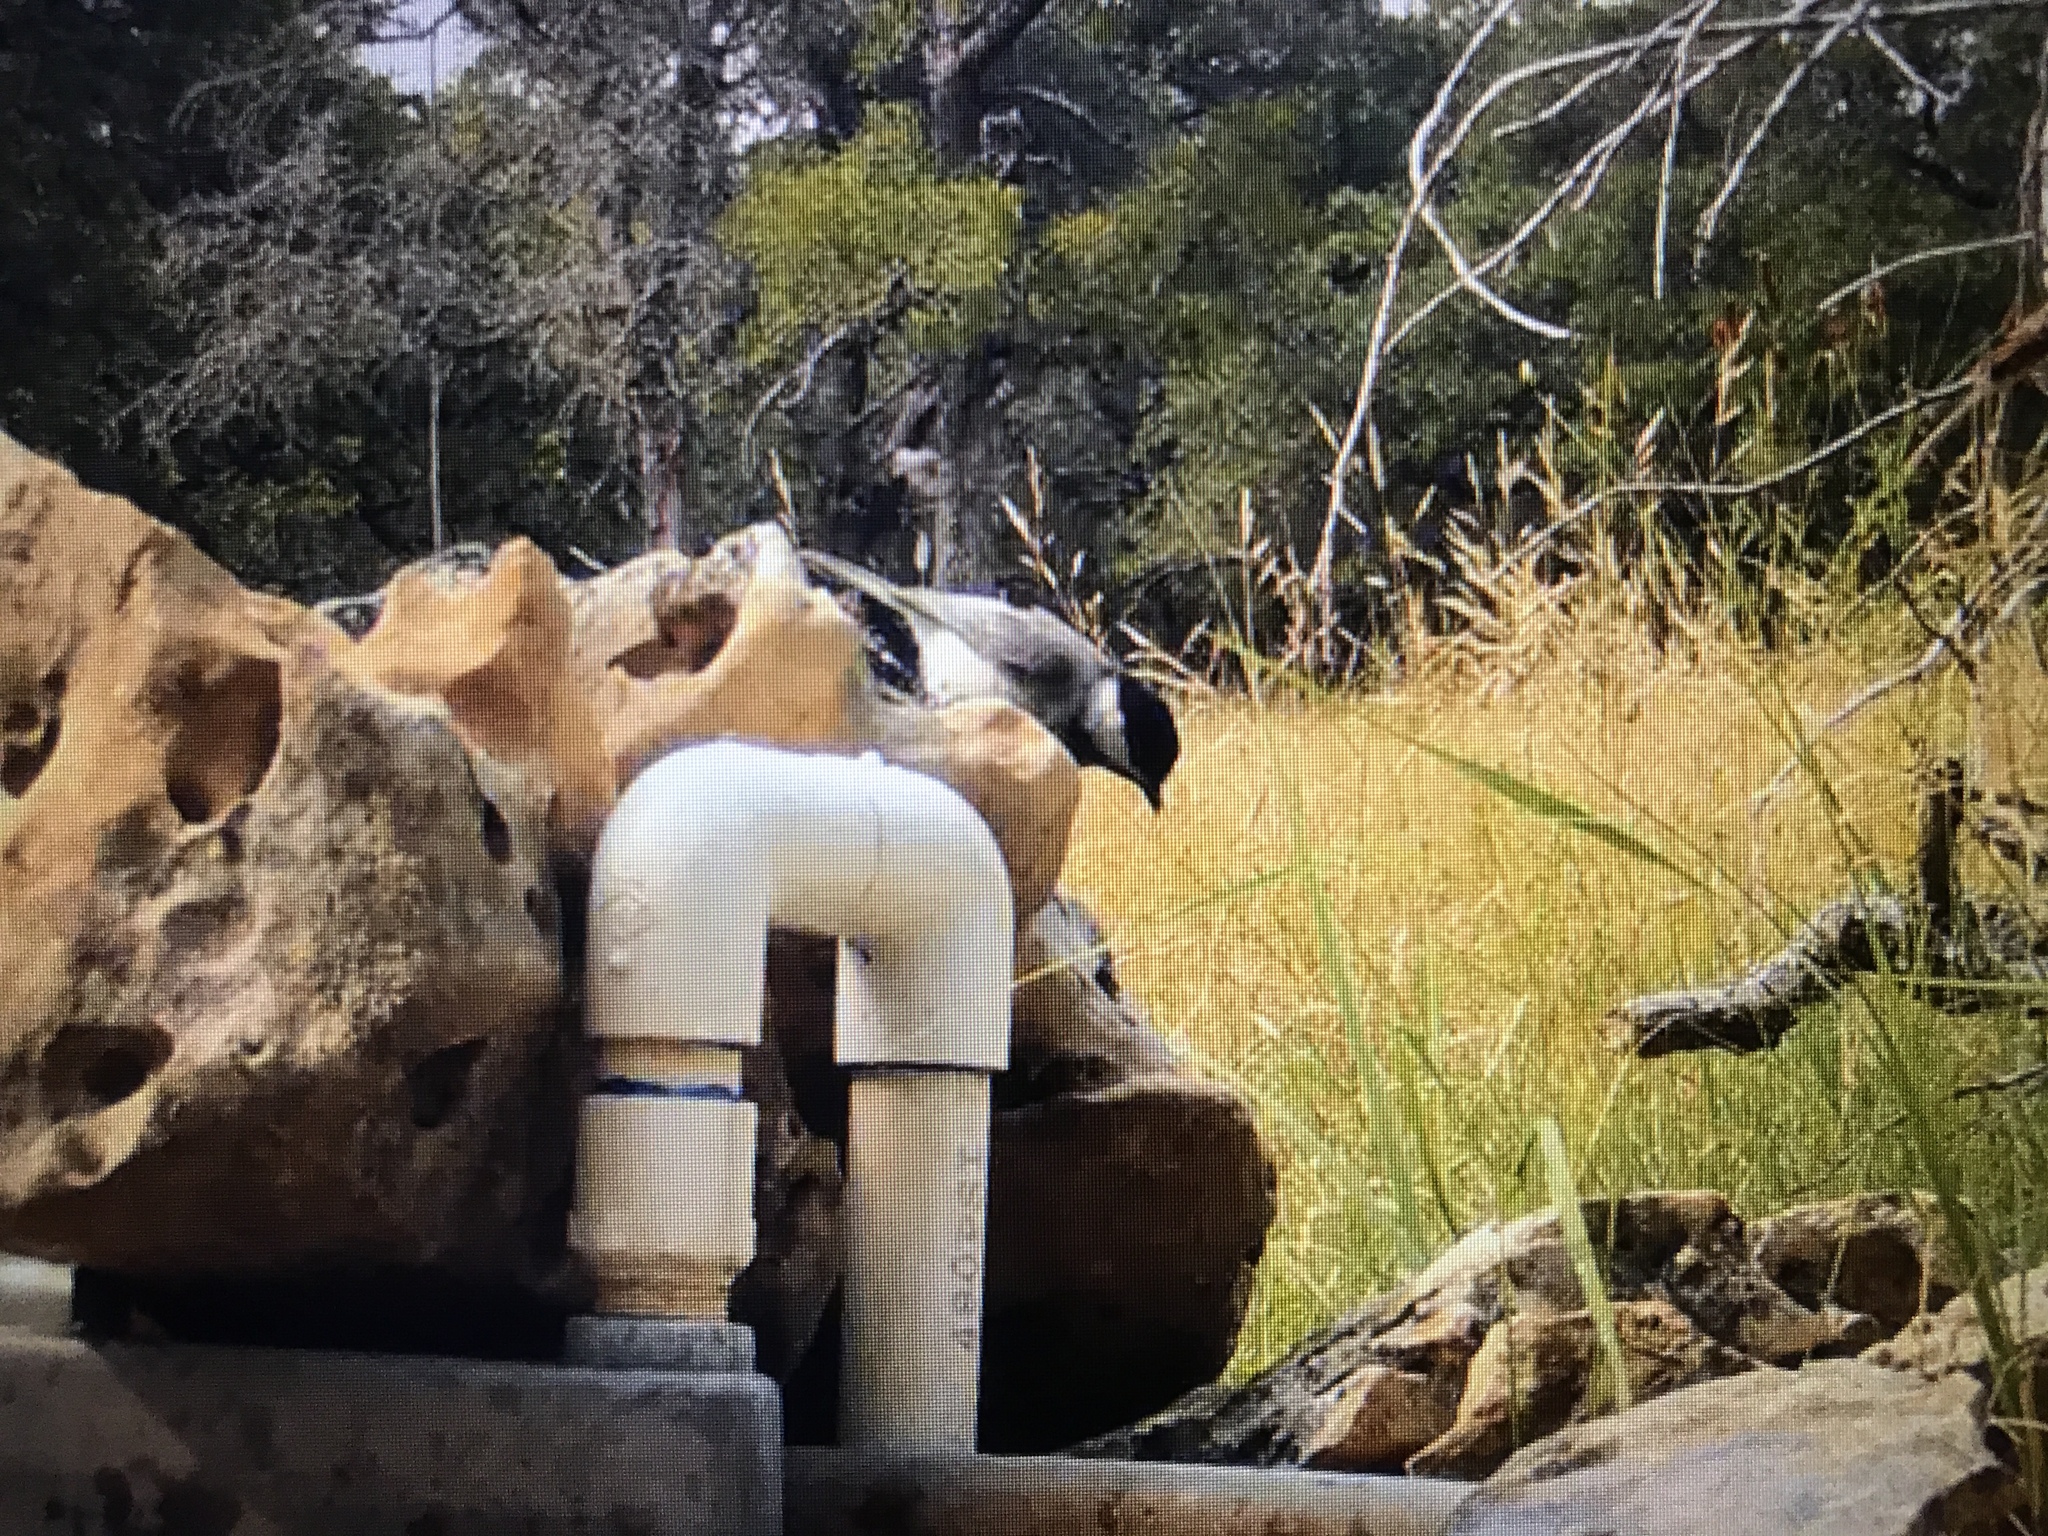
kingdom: Animalia
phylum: Chordata
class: Aves
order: Passeriformes
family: Paridae
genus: Poecile
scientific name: Poecile carolinensis
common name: Carolina chickadee
